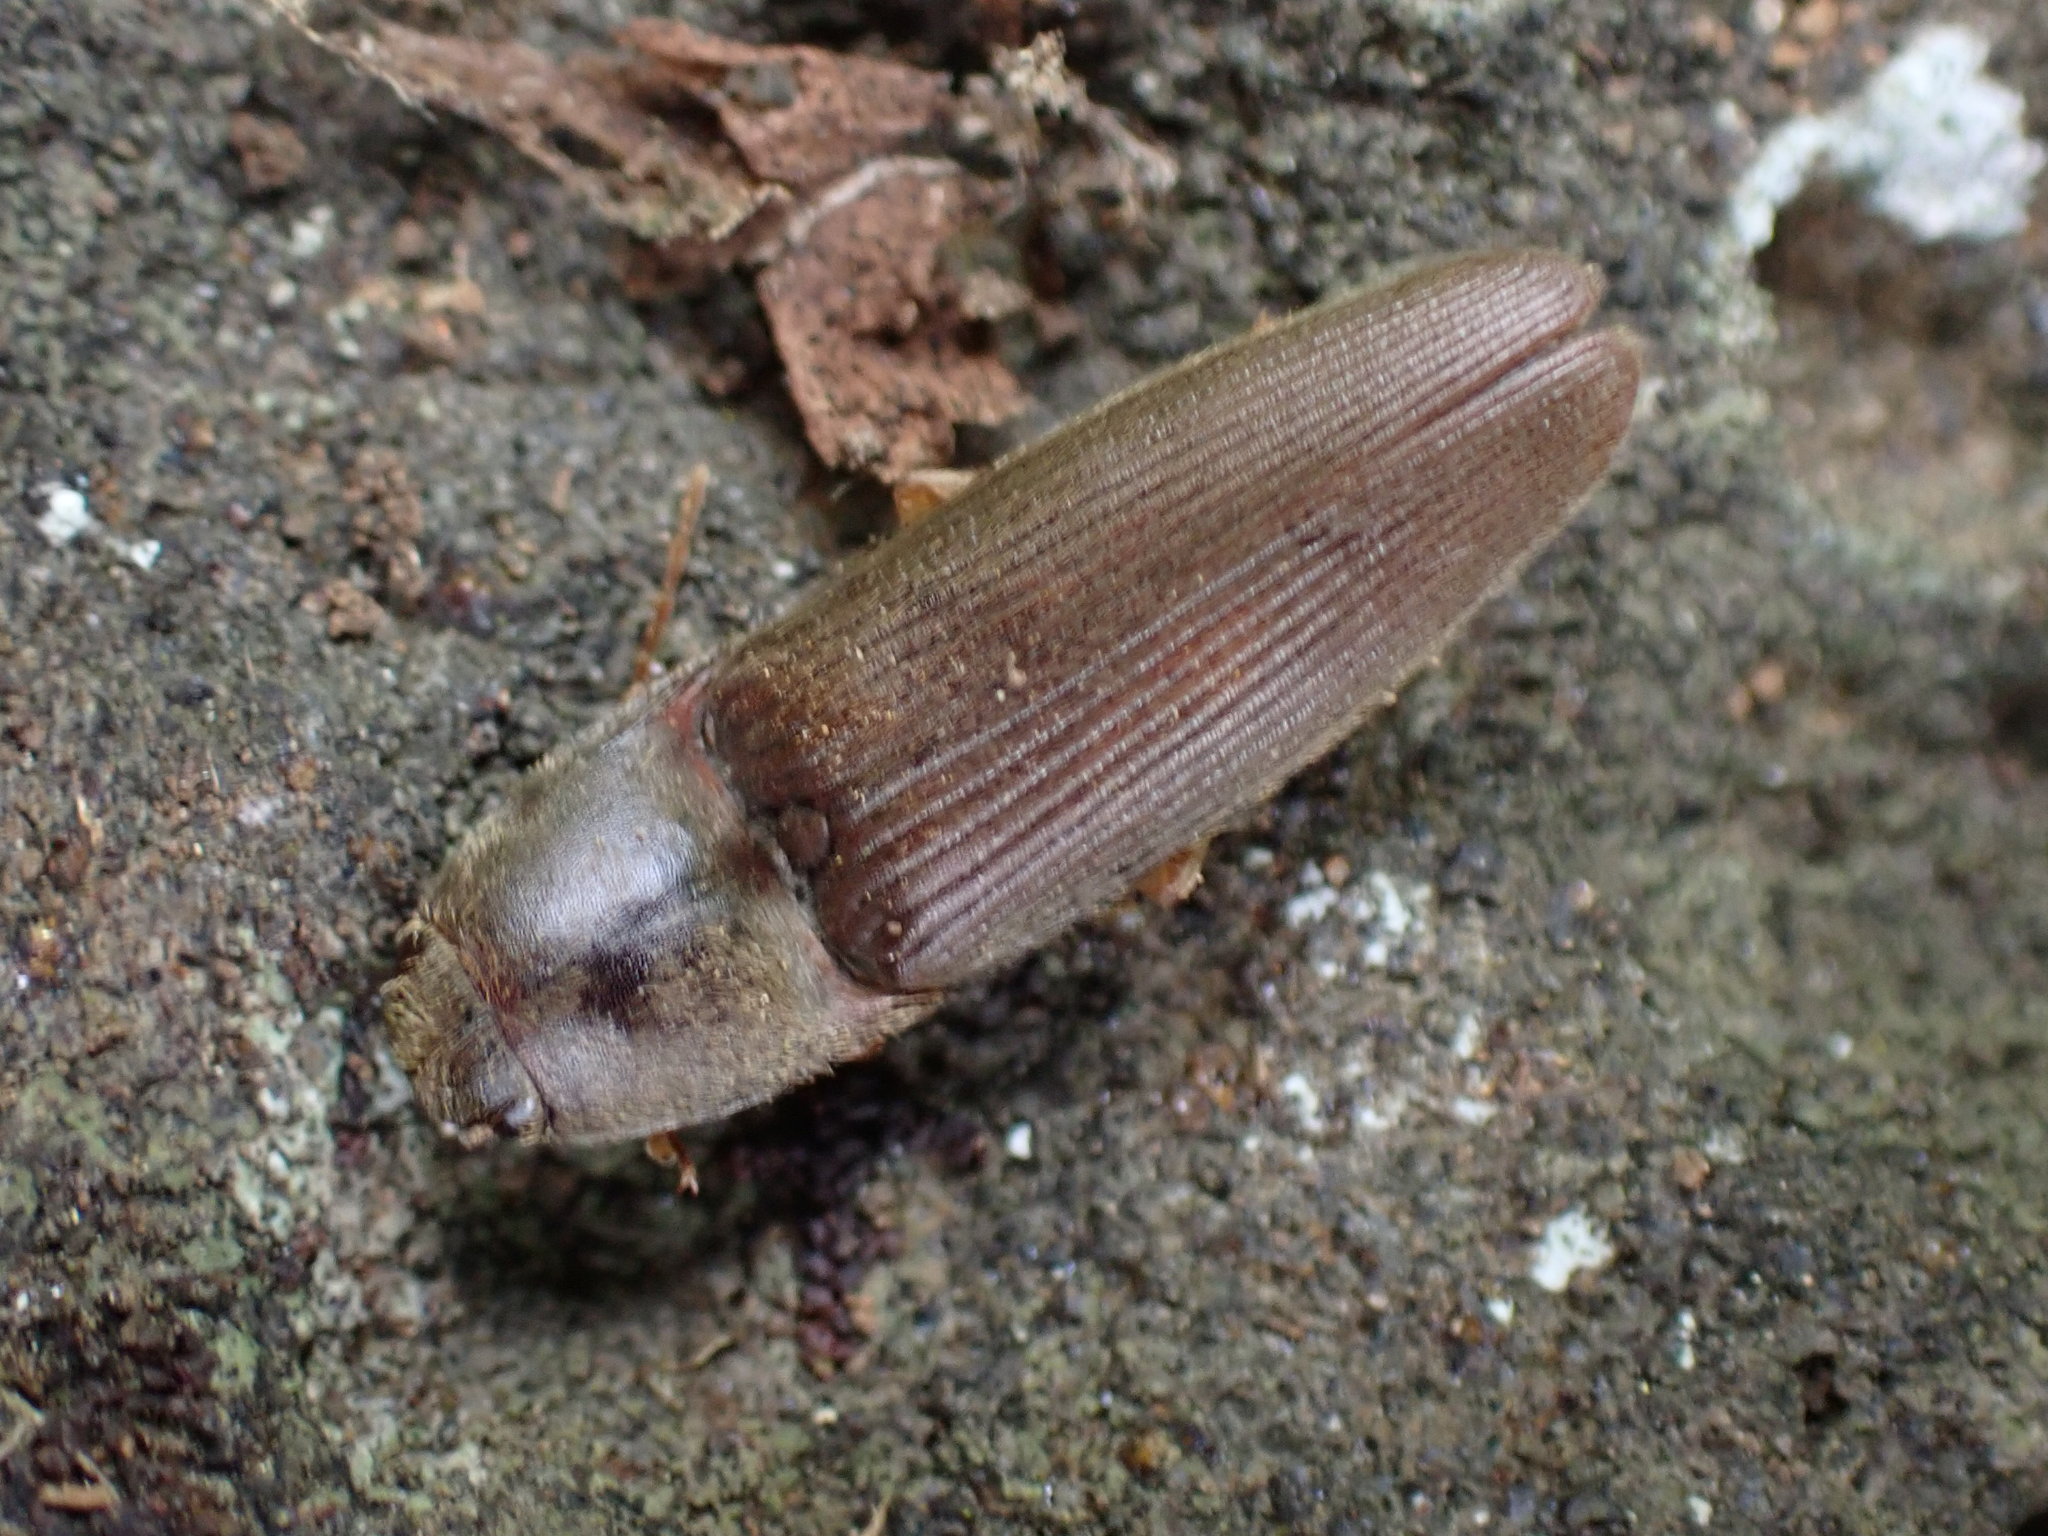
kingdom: Animalia
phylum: Arthropoda
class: Insecta
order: Coleoptera
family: Elateridae
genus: Conoderus
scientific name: Conoderus exsul
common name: Click beetle
